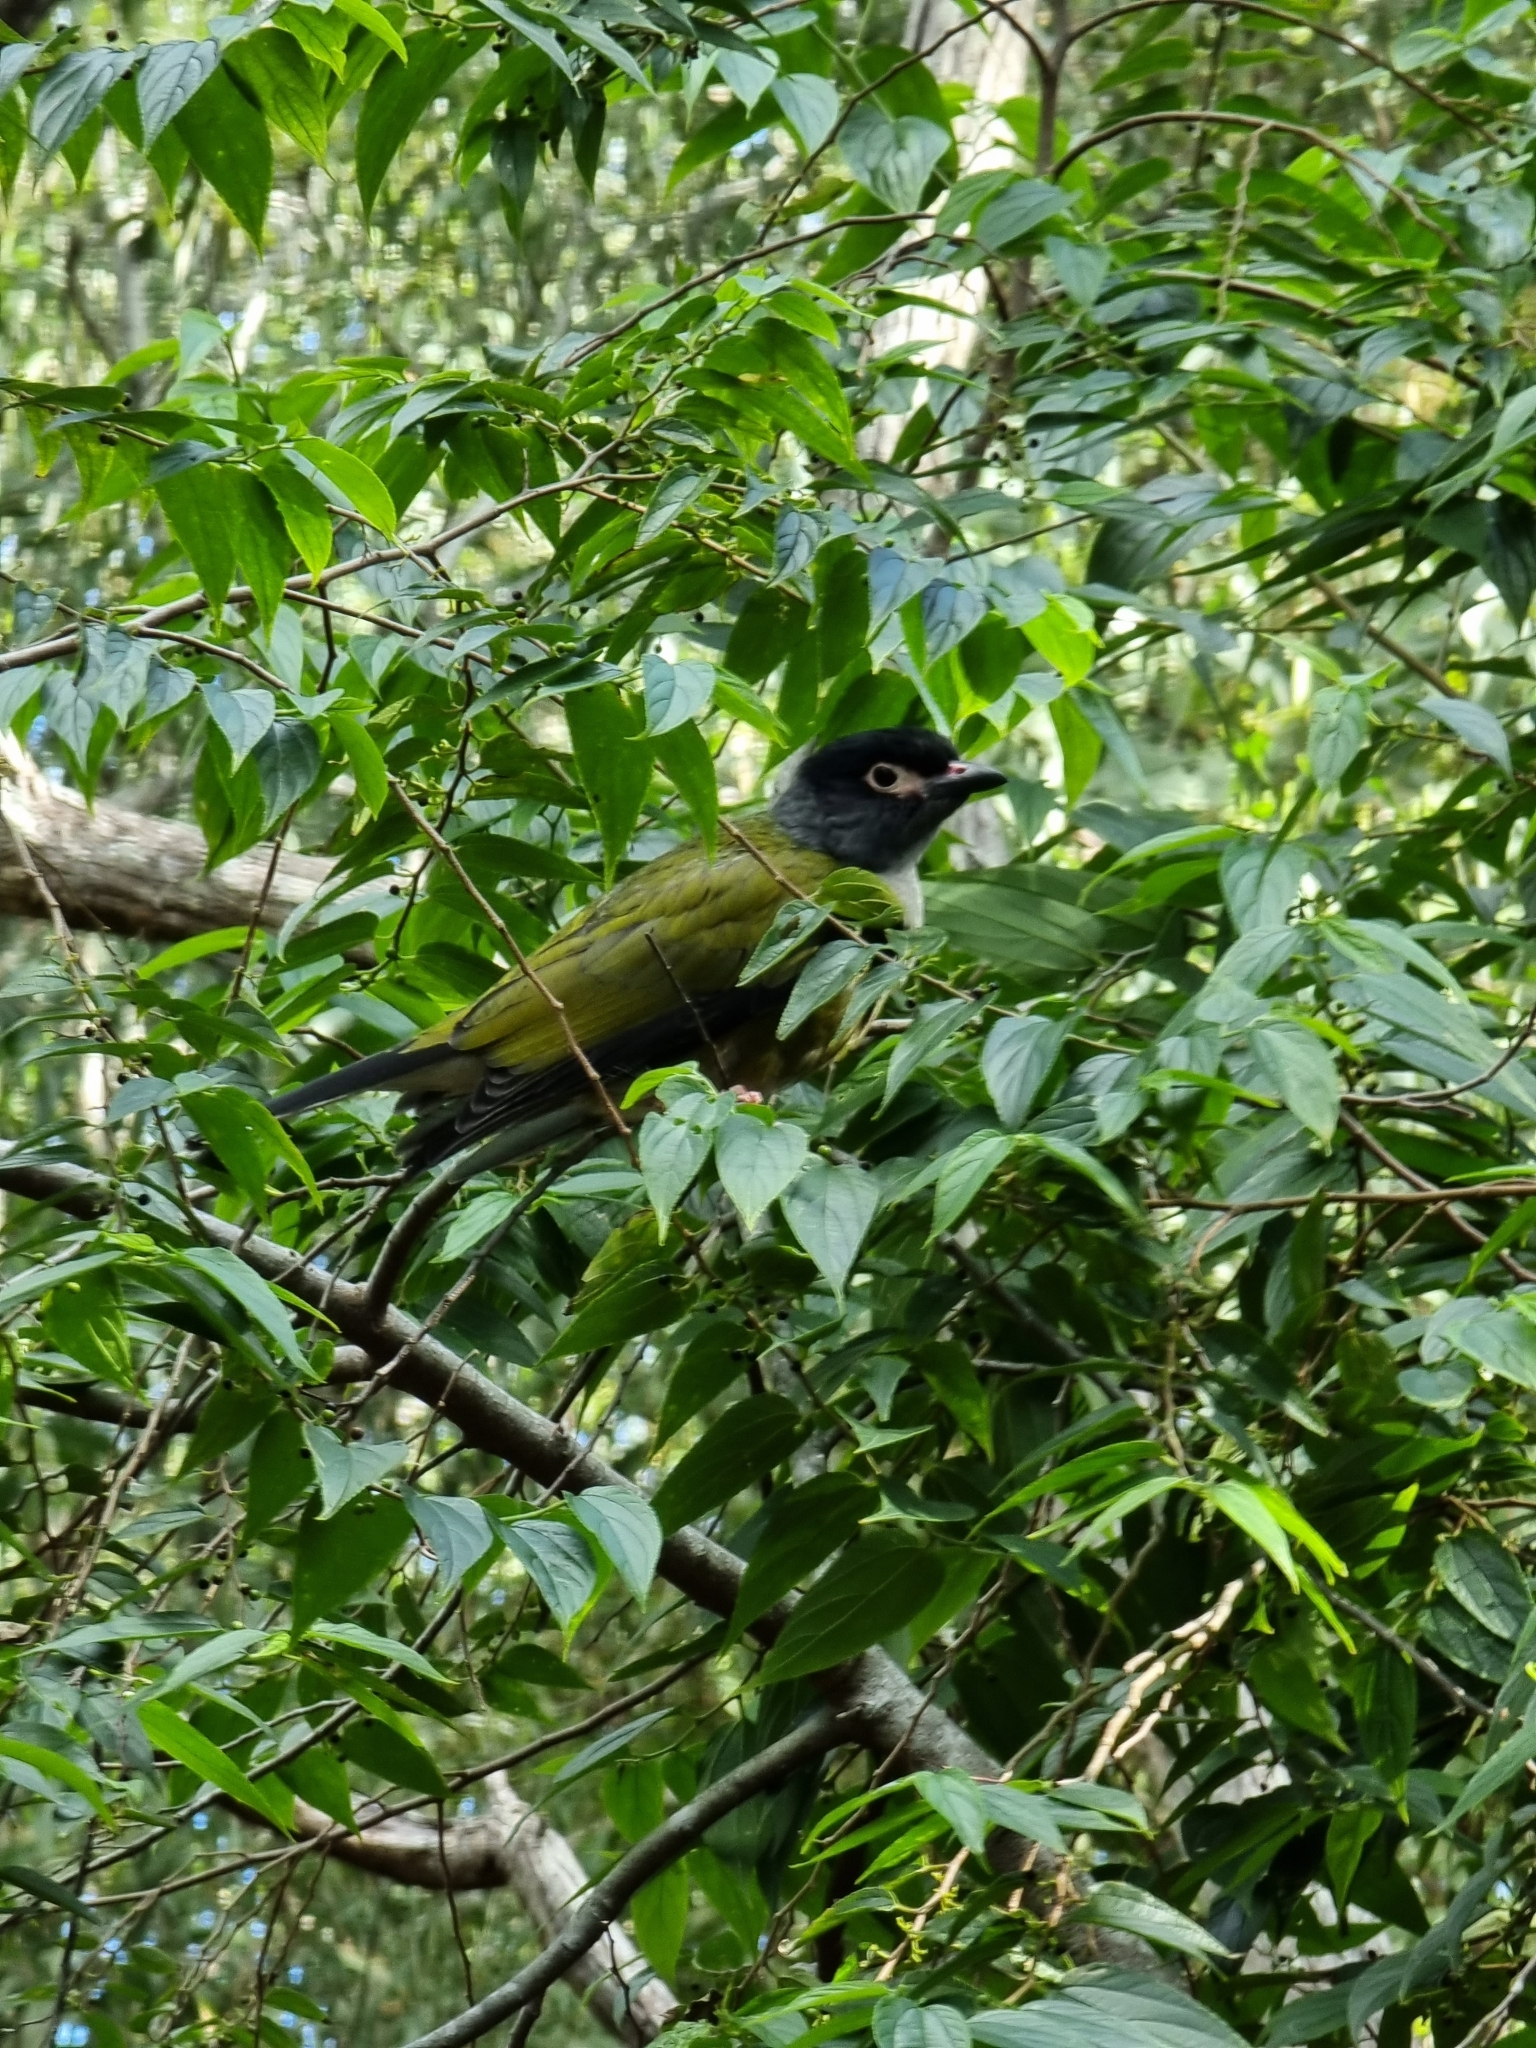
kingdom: Animalia
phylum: Chordata
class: Aves
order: Passeriformes
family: Oriolidae
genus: Sphecotheres
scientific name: Sphecotheres vieilloti
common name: Australasian figbird
